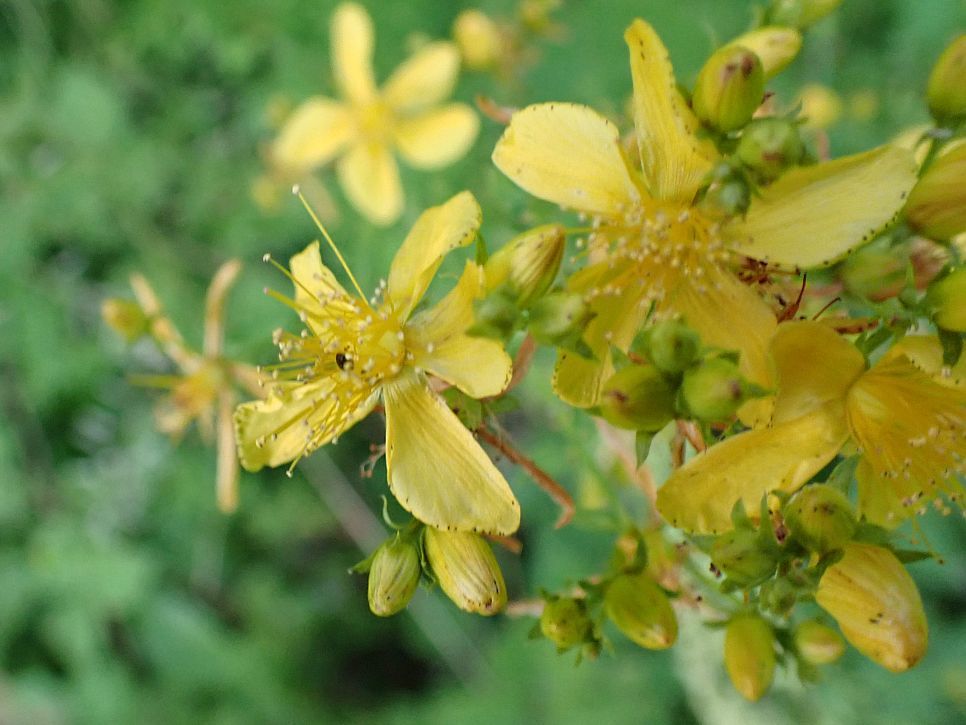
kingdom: Plantae
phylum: Tracheophyta
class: Magnoliopsida
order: Malpighiales
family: Hypericaceae
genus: Hypericum
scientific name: Hypericum perforatum
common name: Common st. johnswort
